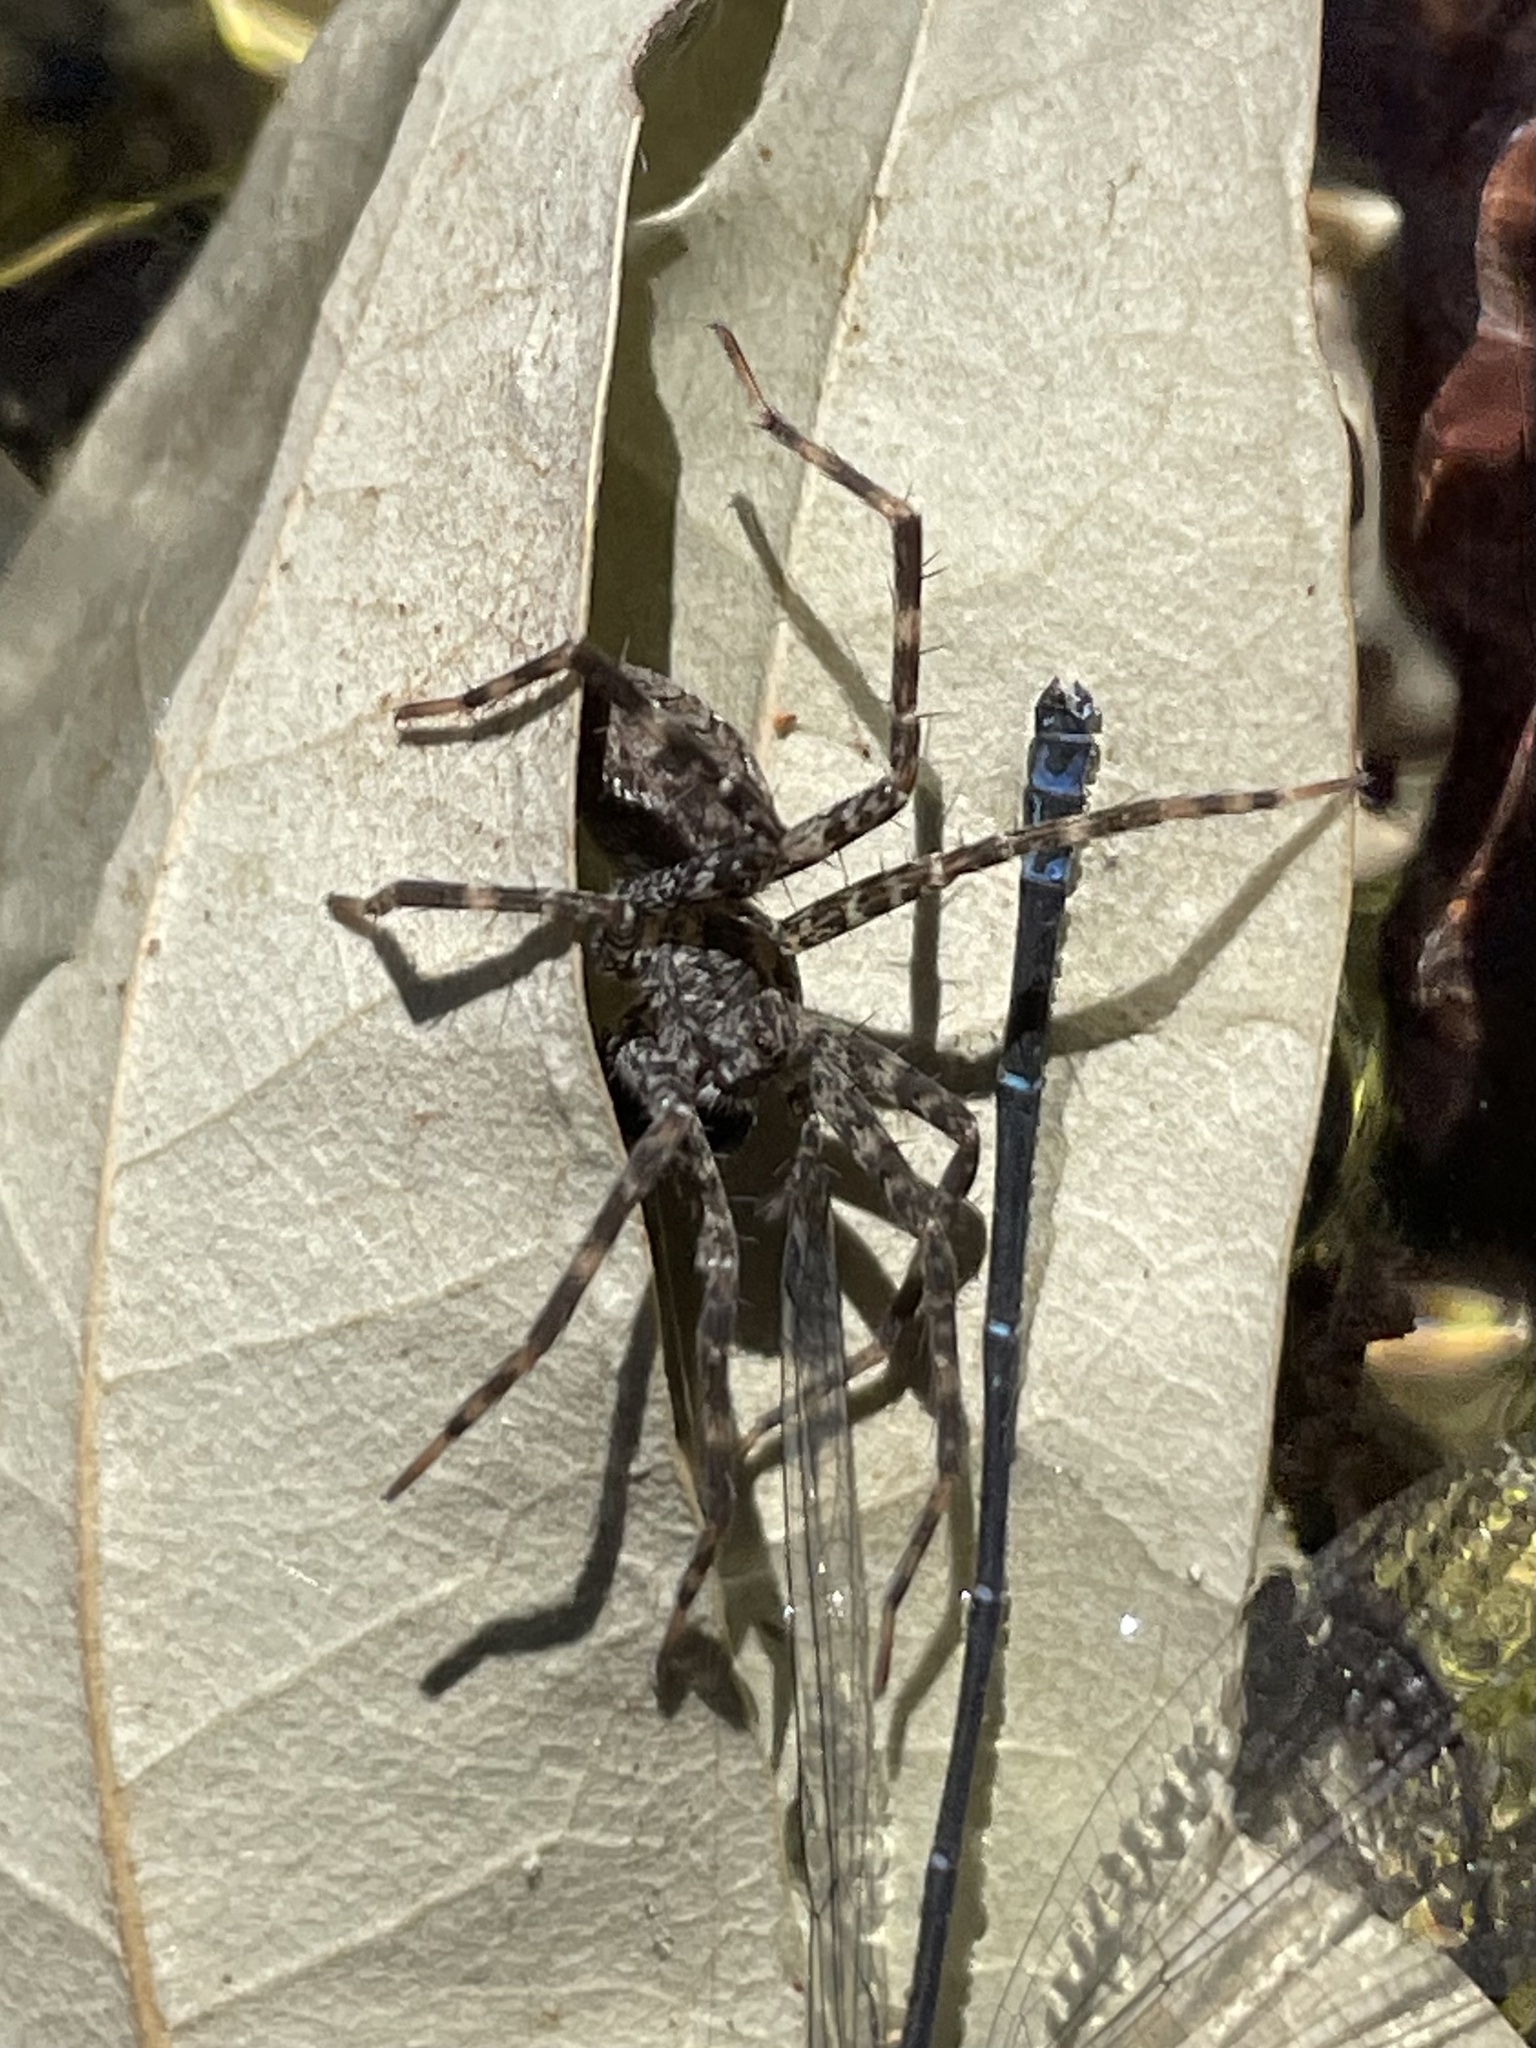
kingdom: Animalia
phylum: Arthropoda
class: Arachnida
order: Araneae
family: Pisauridae
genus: Dolomedes
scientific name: Dolomedes tenebrosus
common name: Dark fishing spider
